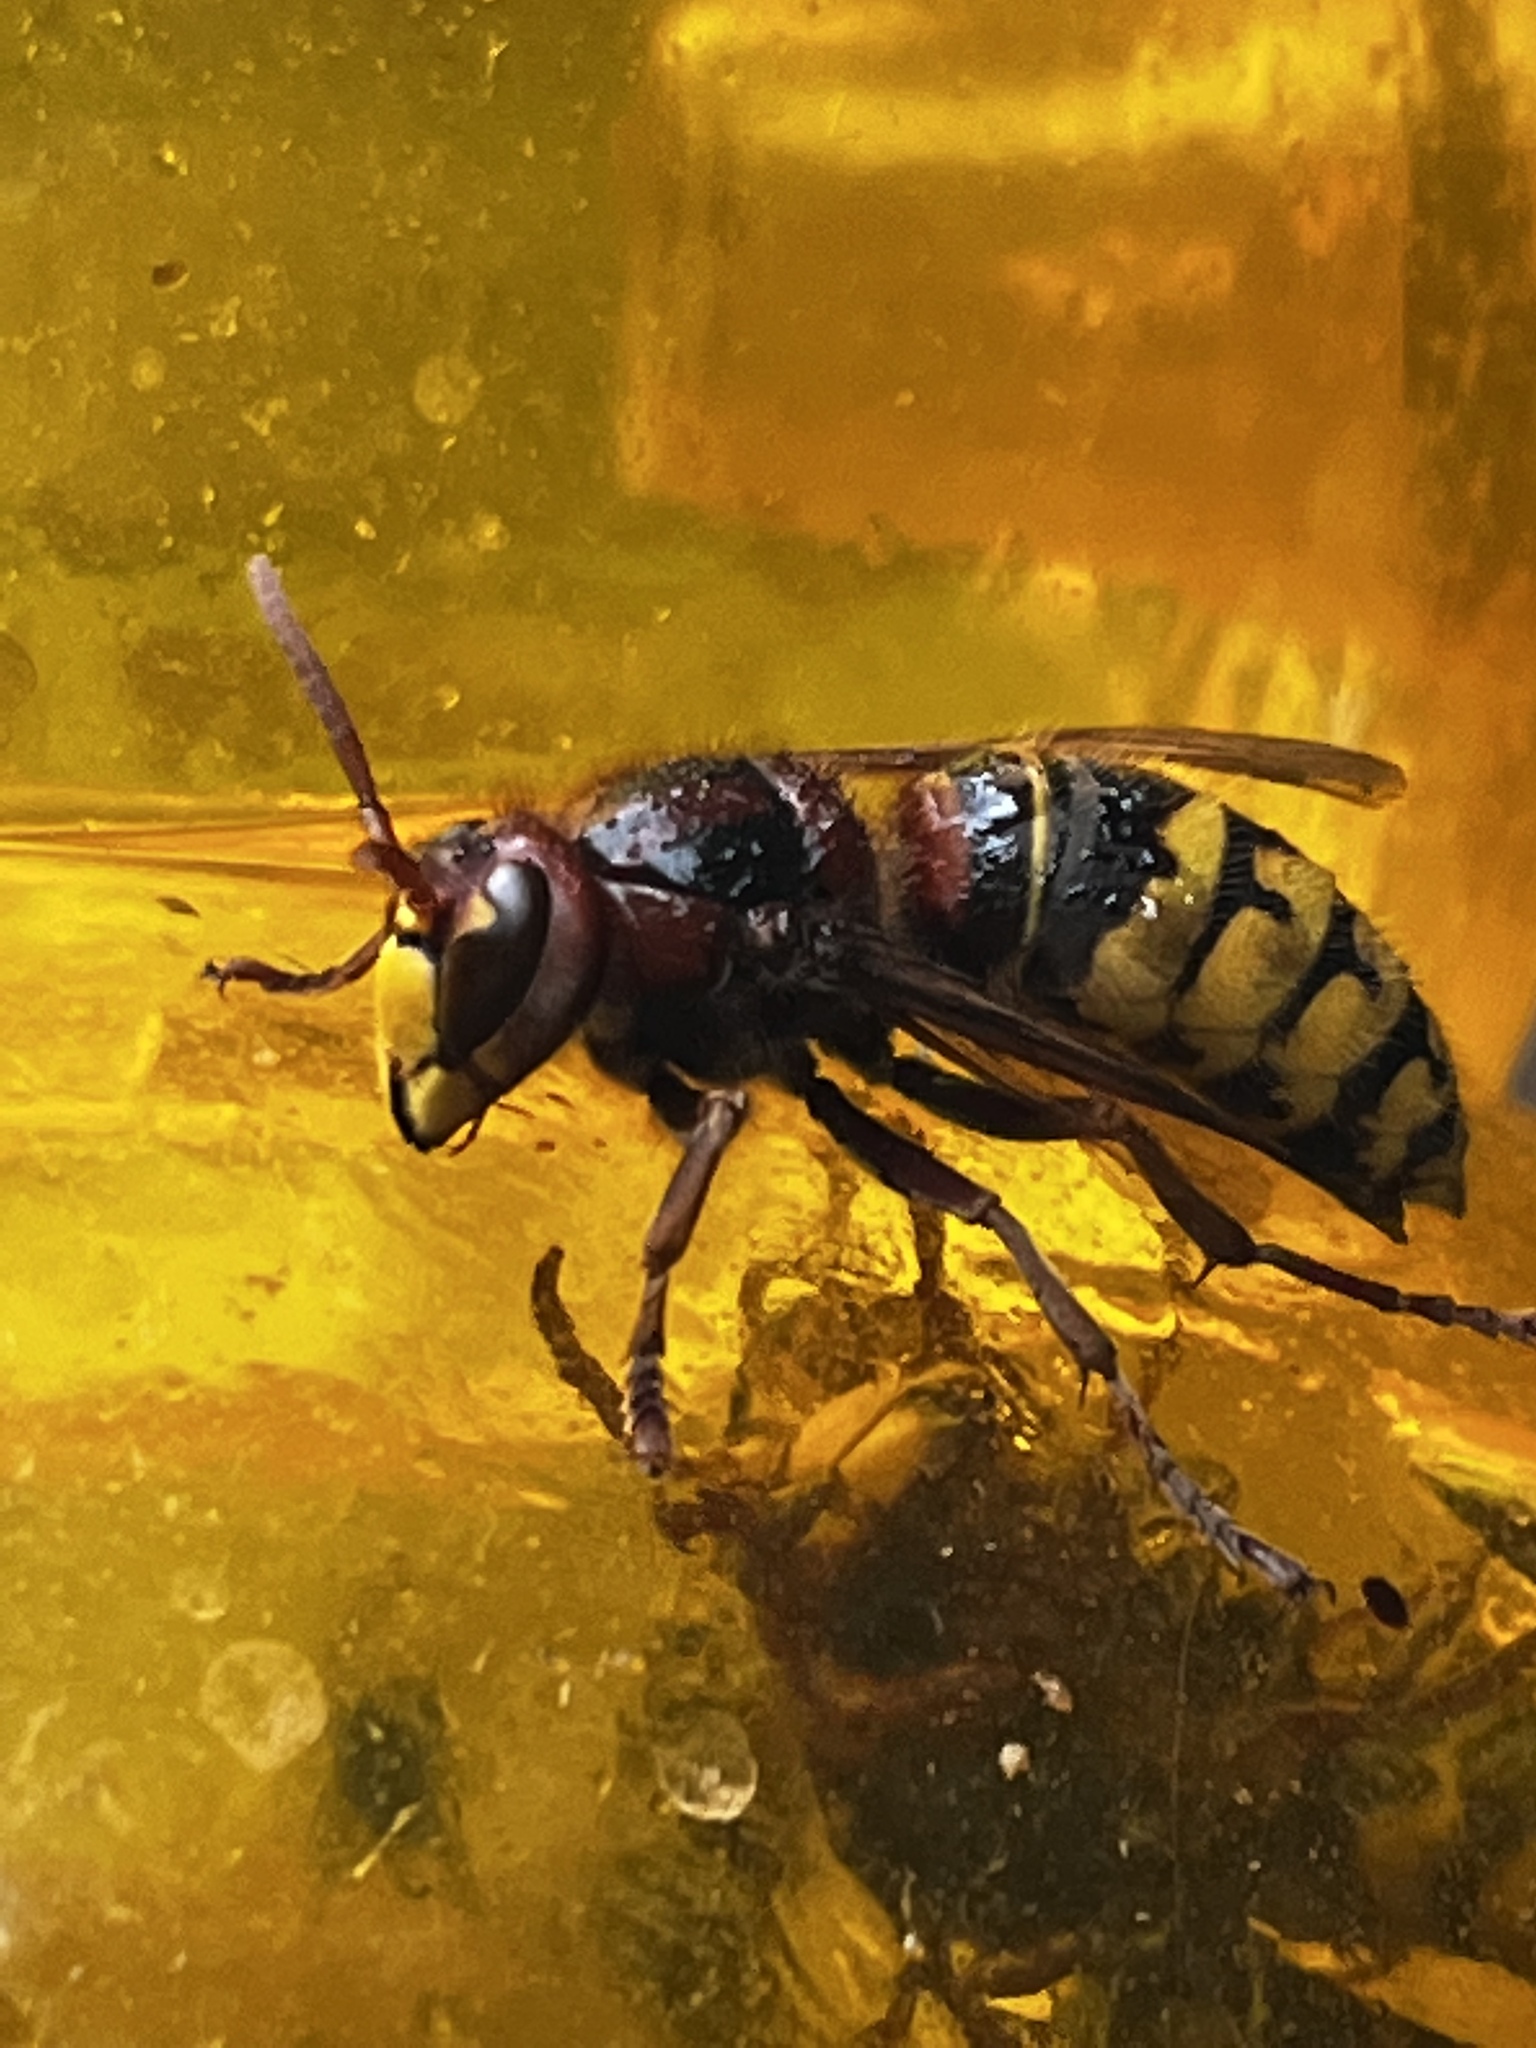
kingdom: Animalia
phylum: Arthropoda
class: Insecta
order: Hymenoptera
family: Vespidae
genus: Vespa
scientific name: Vespa crabro
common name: Hornet
